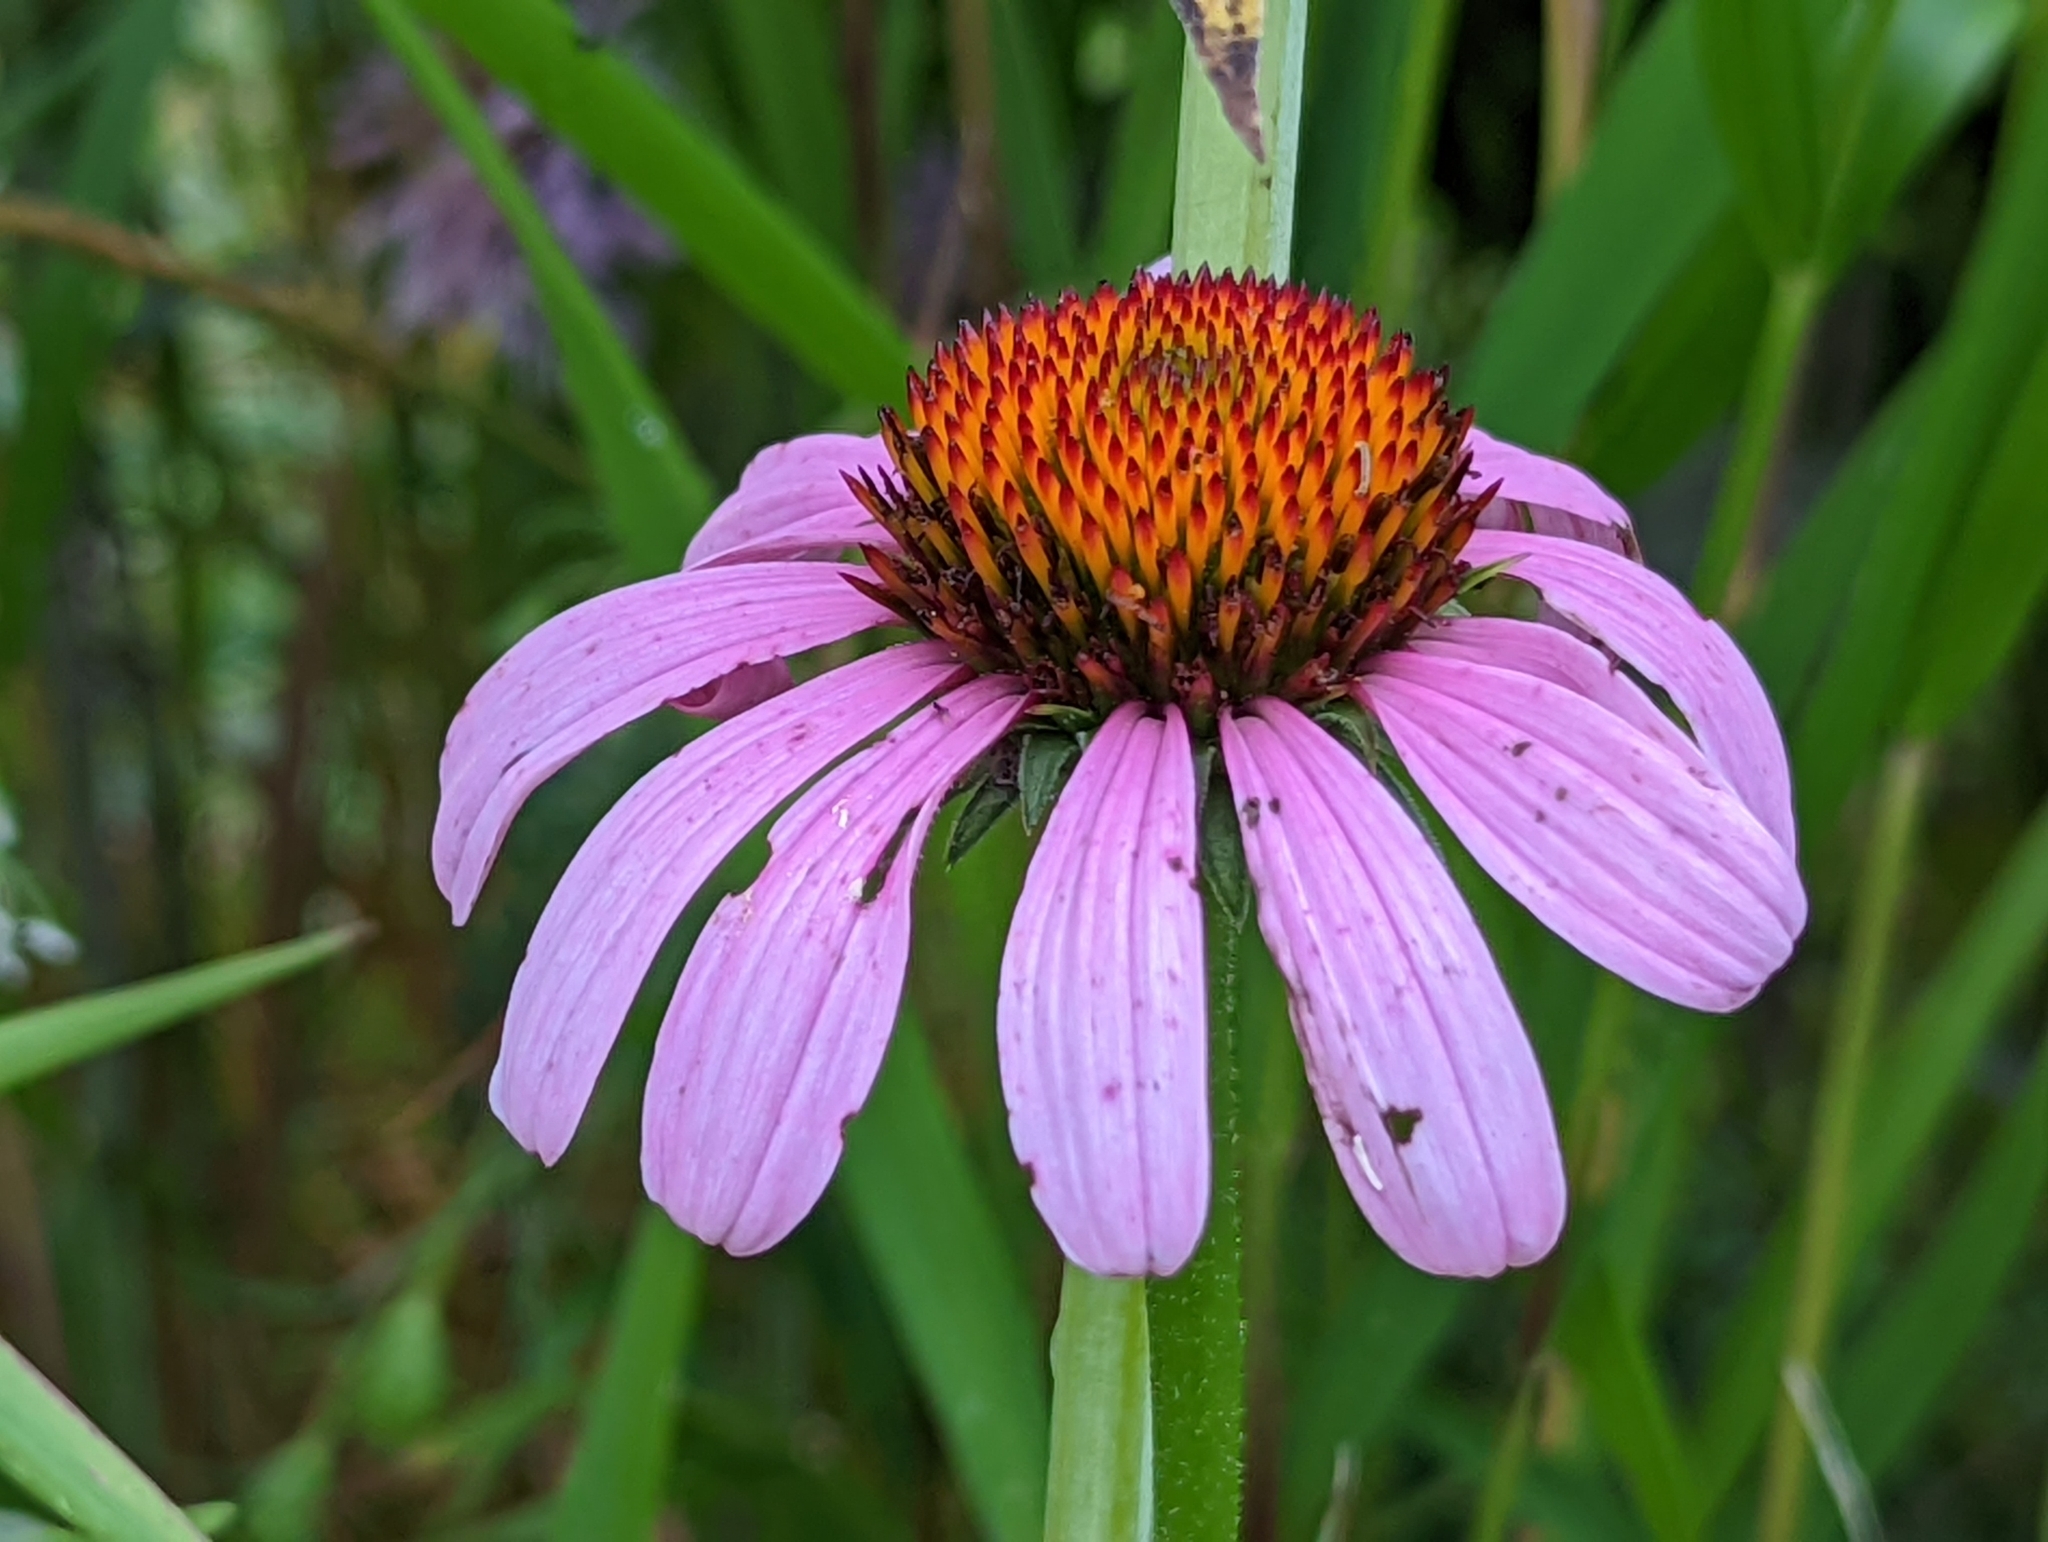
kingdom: Plantae
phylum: Tracheophyta
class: Magnoliopsida
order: Asterales
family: Asteraceae
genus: Echinacea
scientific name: Echinacea purpurea
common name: Broad-leaved purple coneflower
